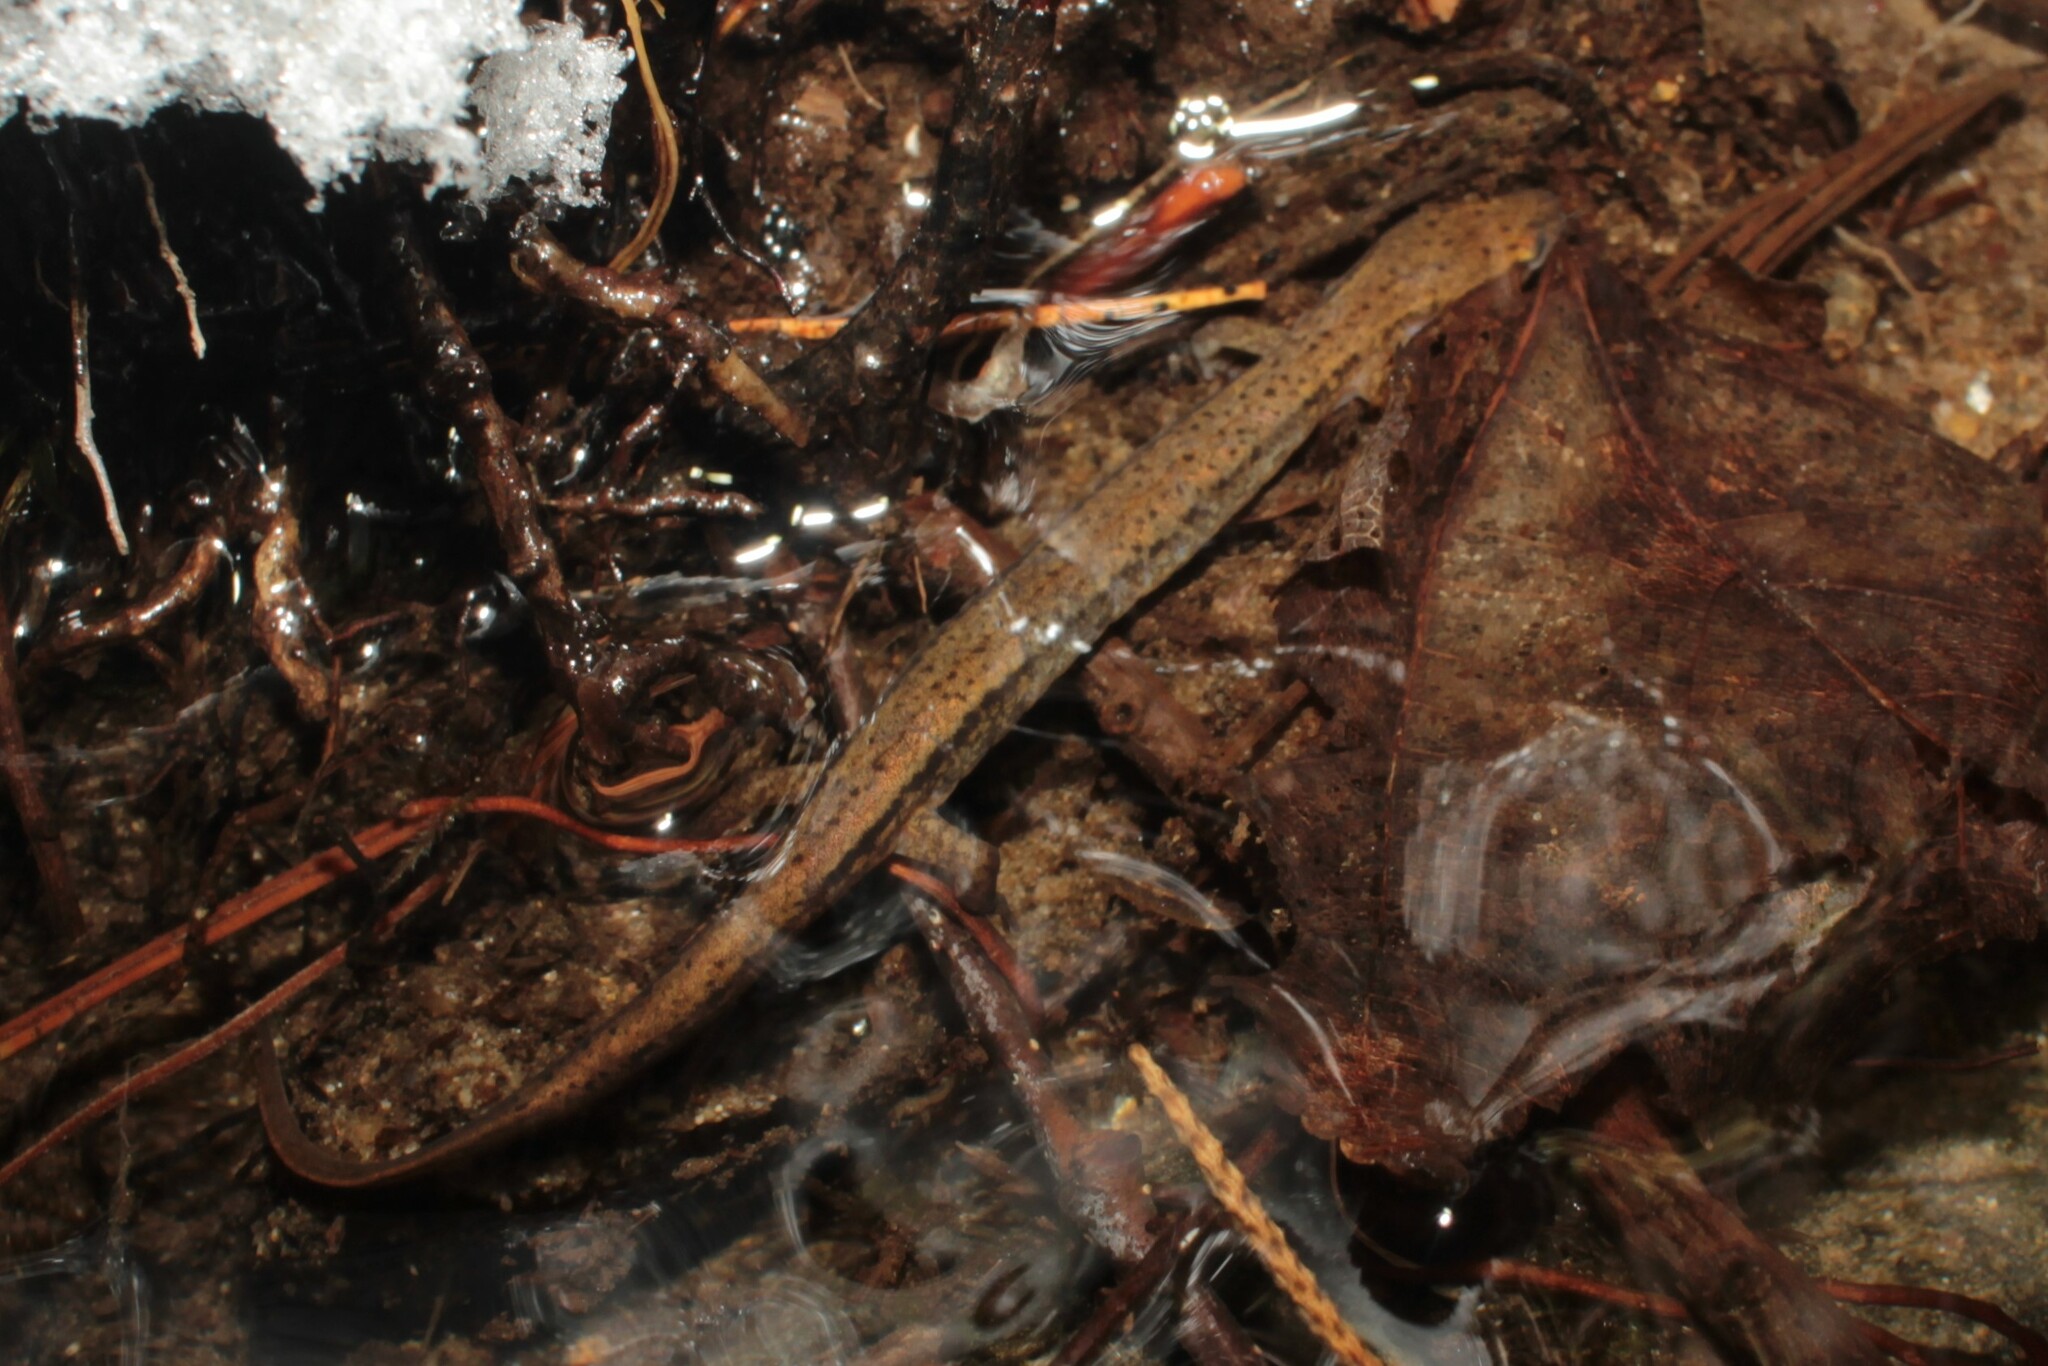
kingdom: Animalia
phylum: Chordata
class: Amphibia
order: Caudata
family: Plethodontidae
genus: Eurycea
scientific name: Eurycea bislineata
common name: Northern two-lined salamander
